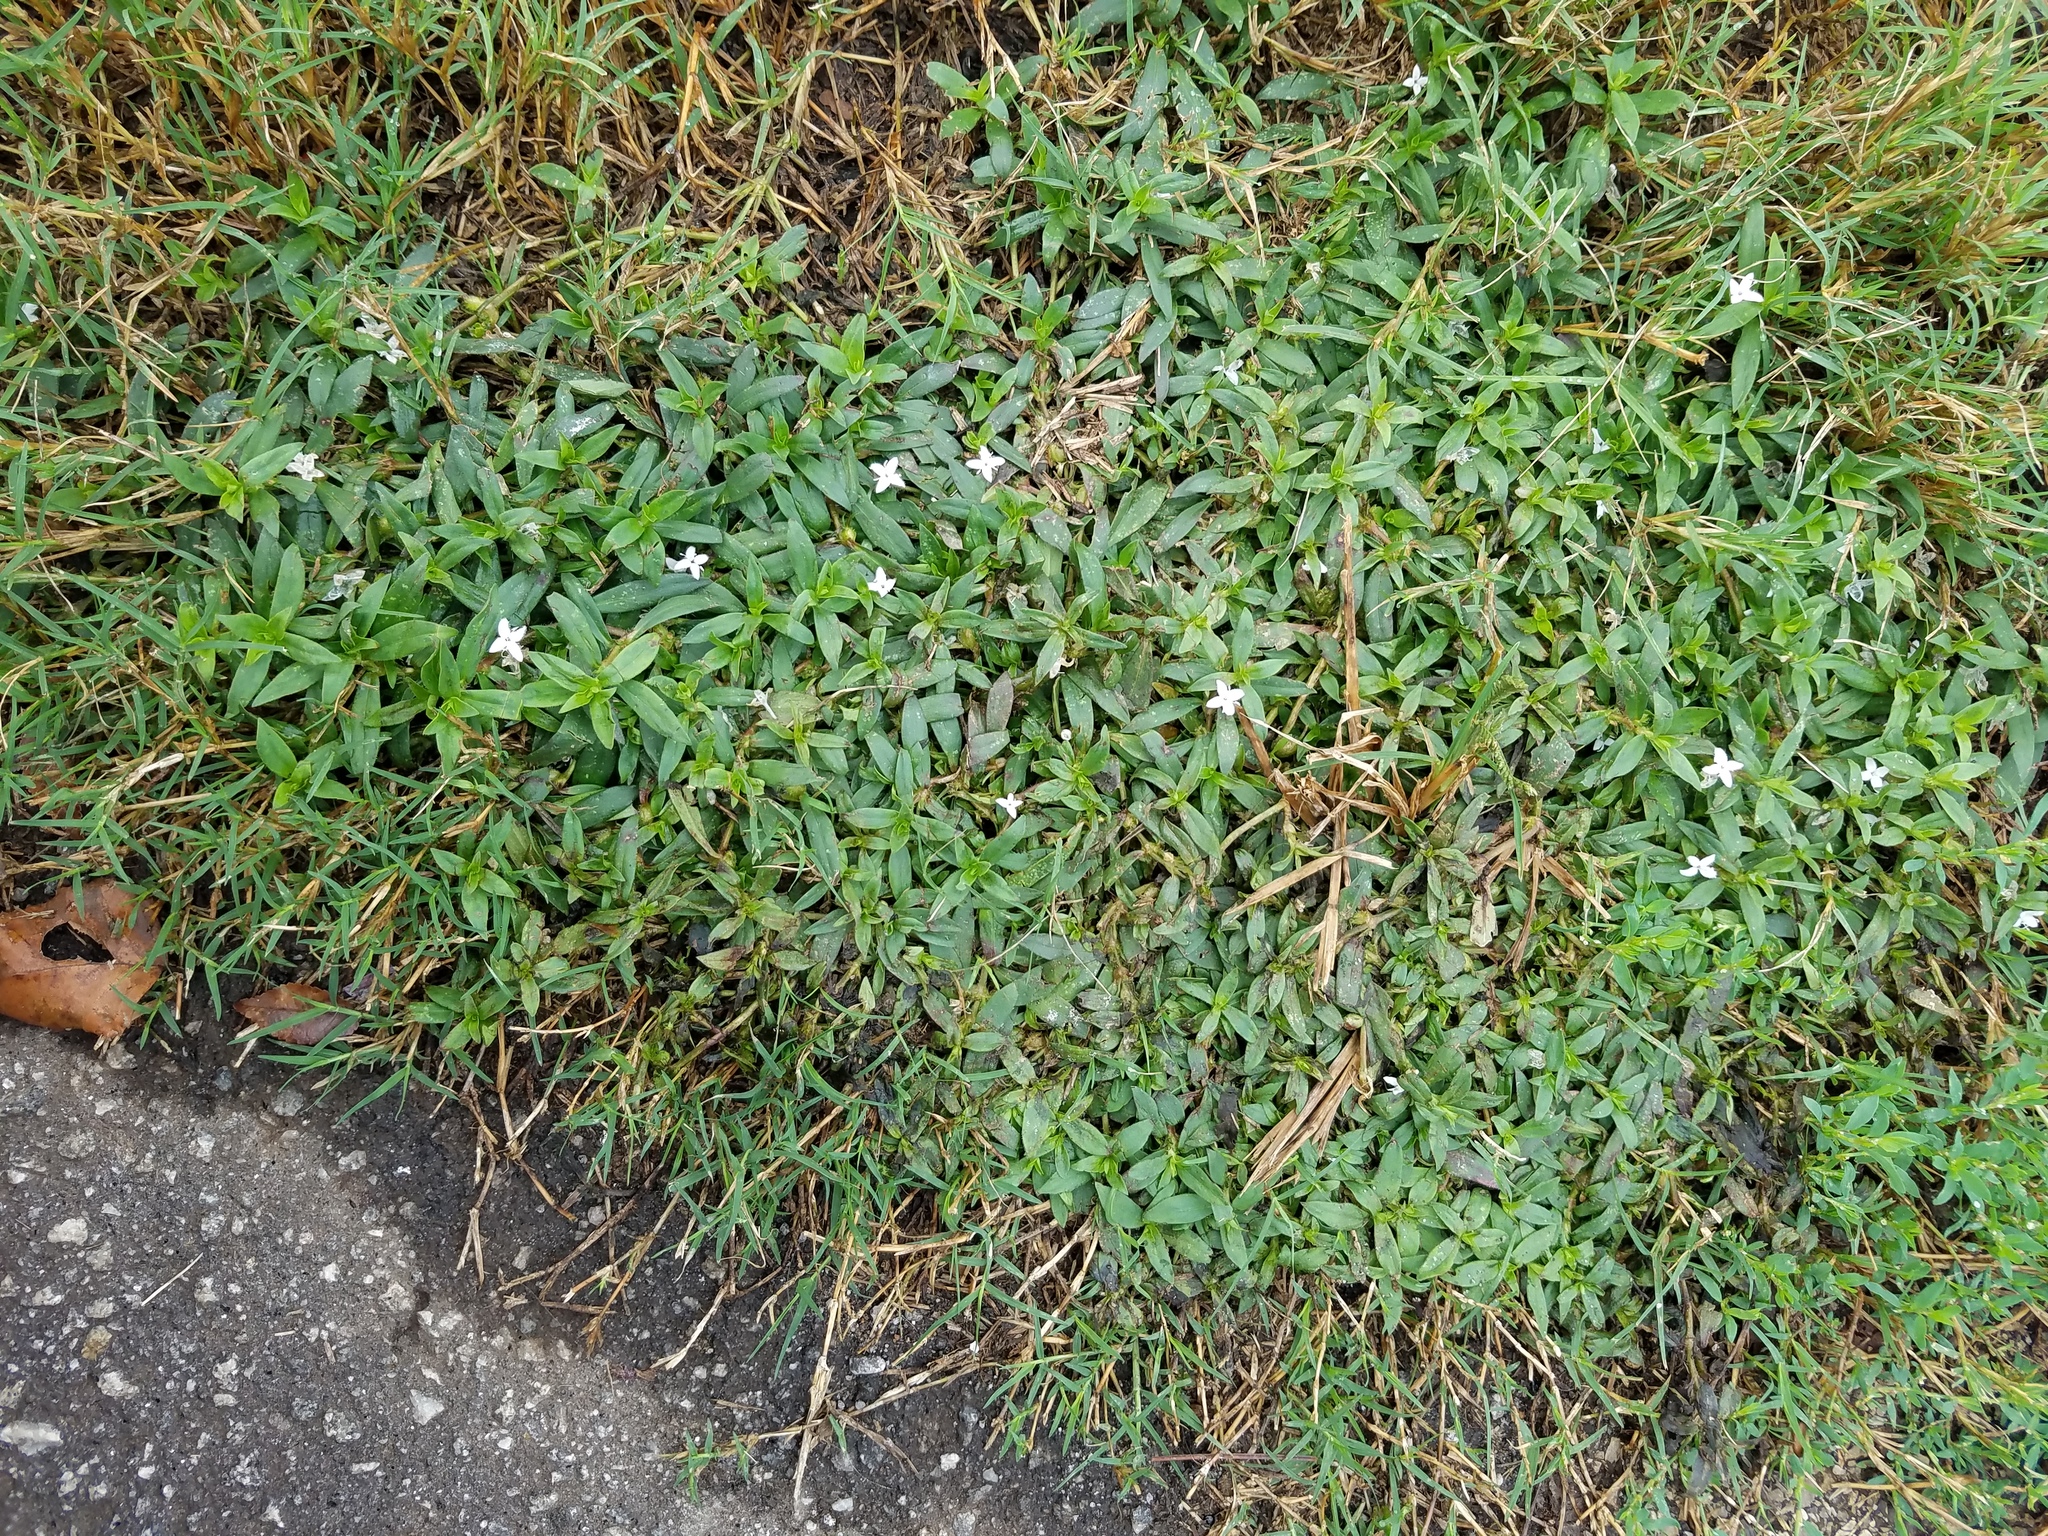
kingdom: Plantae
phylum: Tracheophyta
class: Magnoliopsida
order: Gentianales
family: Rubiaceae
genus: Diodia
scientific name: Diodia virginiana
